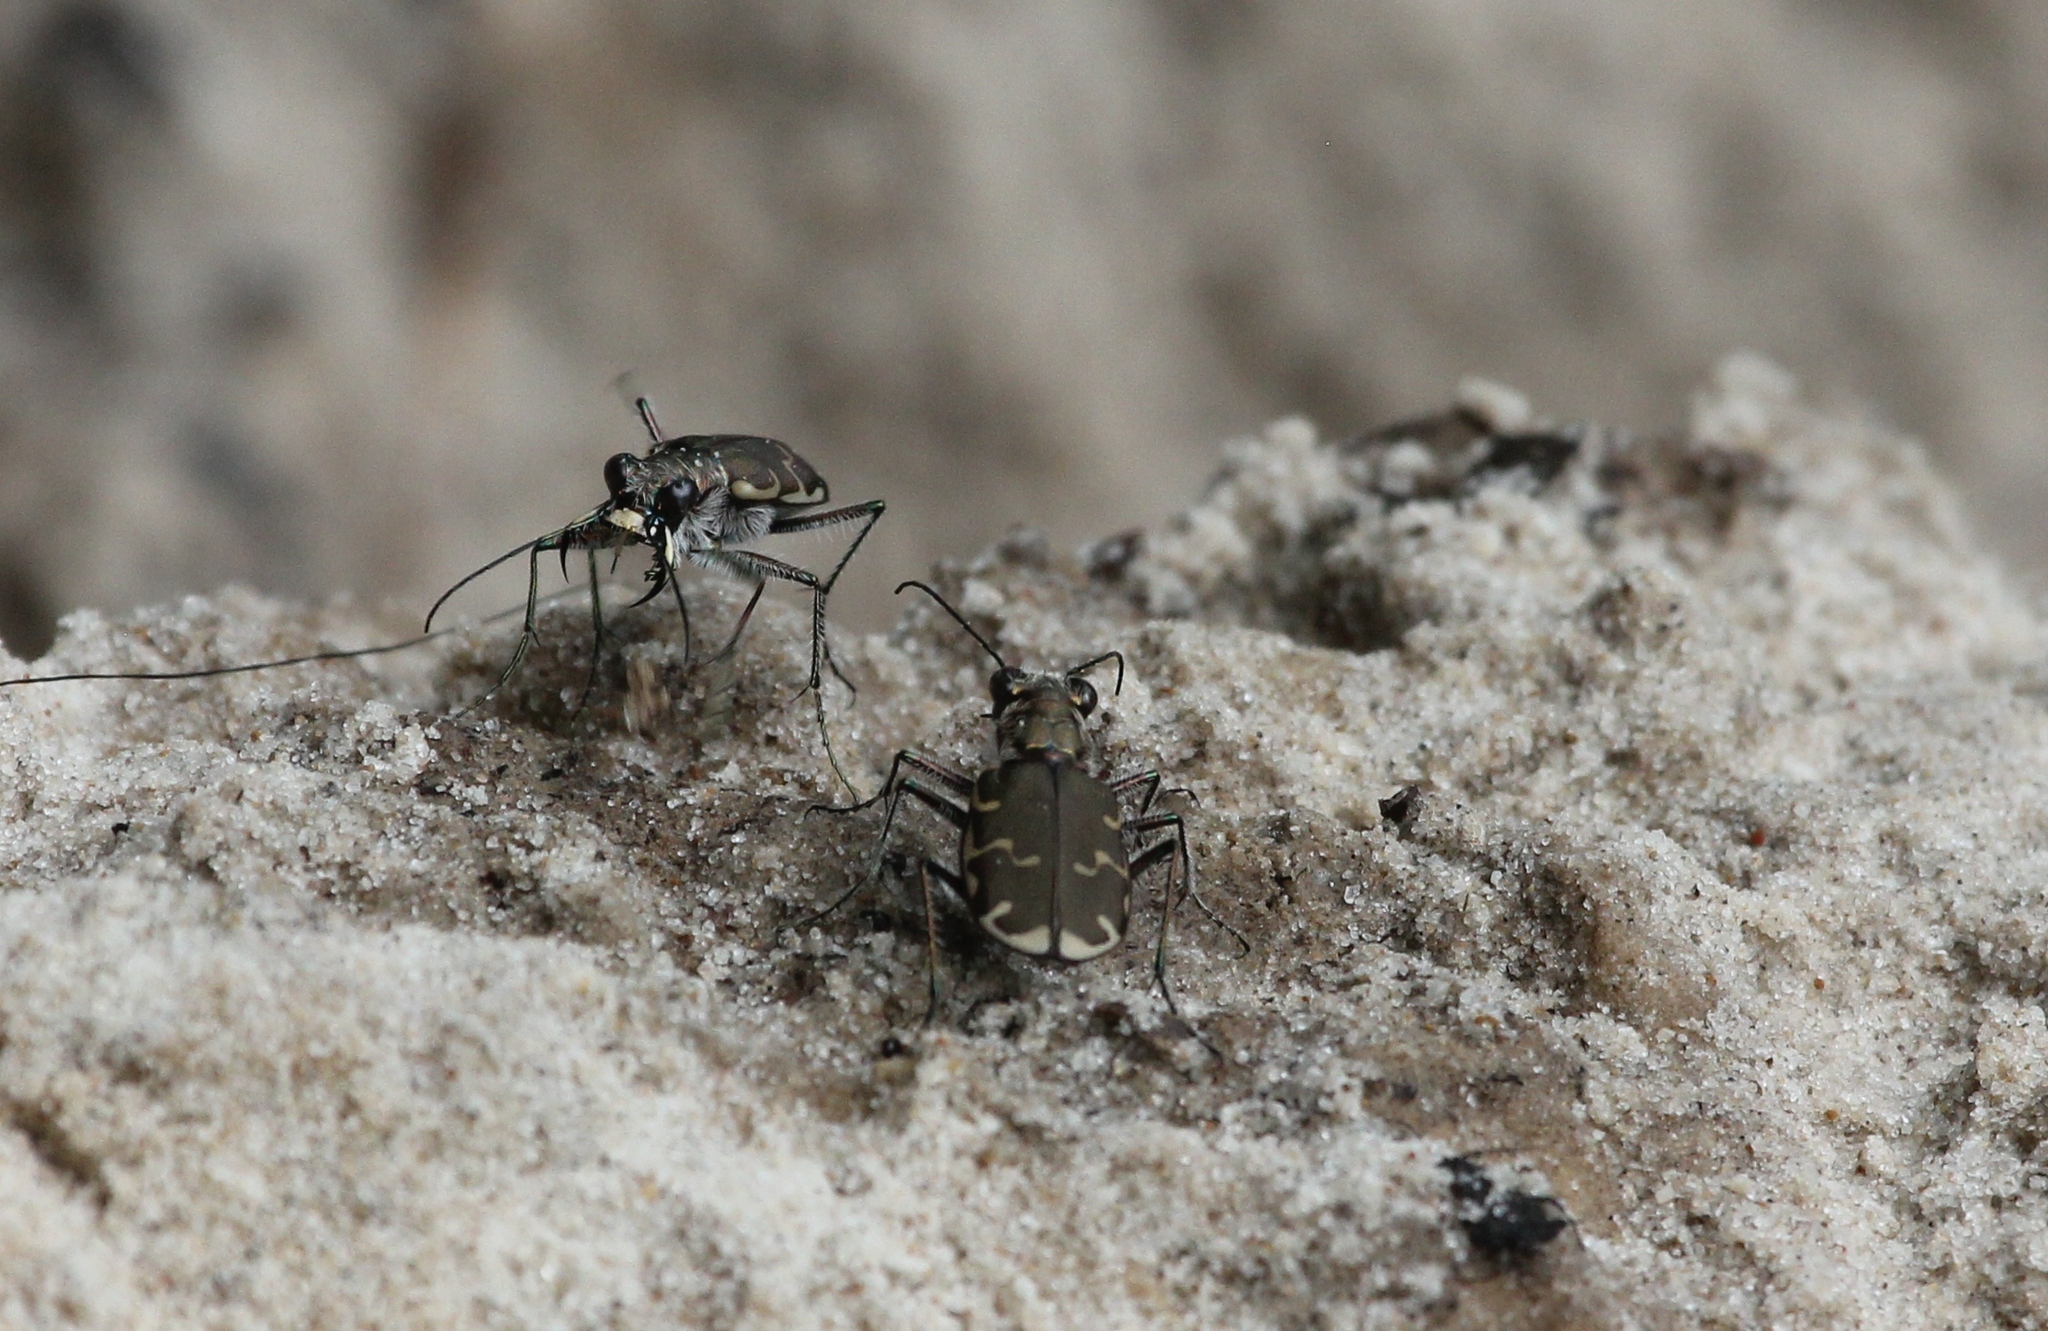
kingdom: Animalia
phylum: Arthropoda
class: Insecta
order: Coleoptera
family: Carabidae
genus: Cicindela
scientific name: Cicindela repanda
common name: Bronzed tiger beetle
